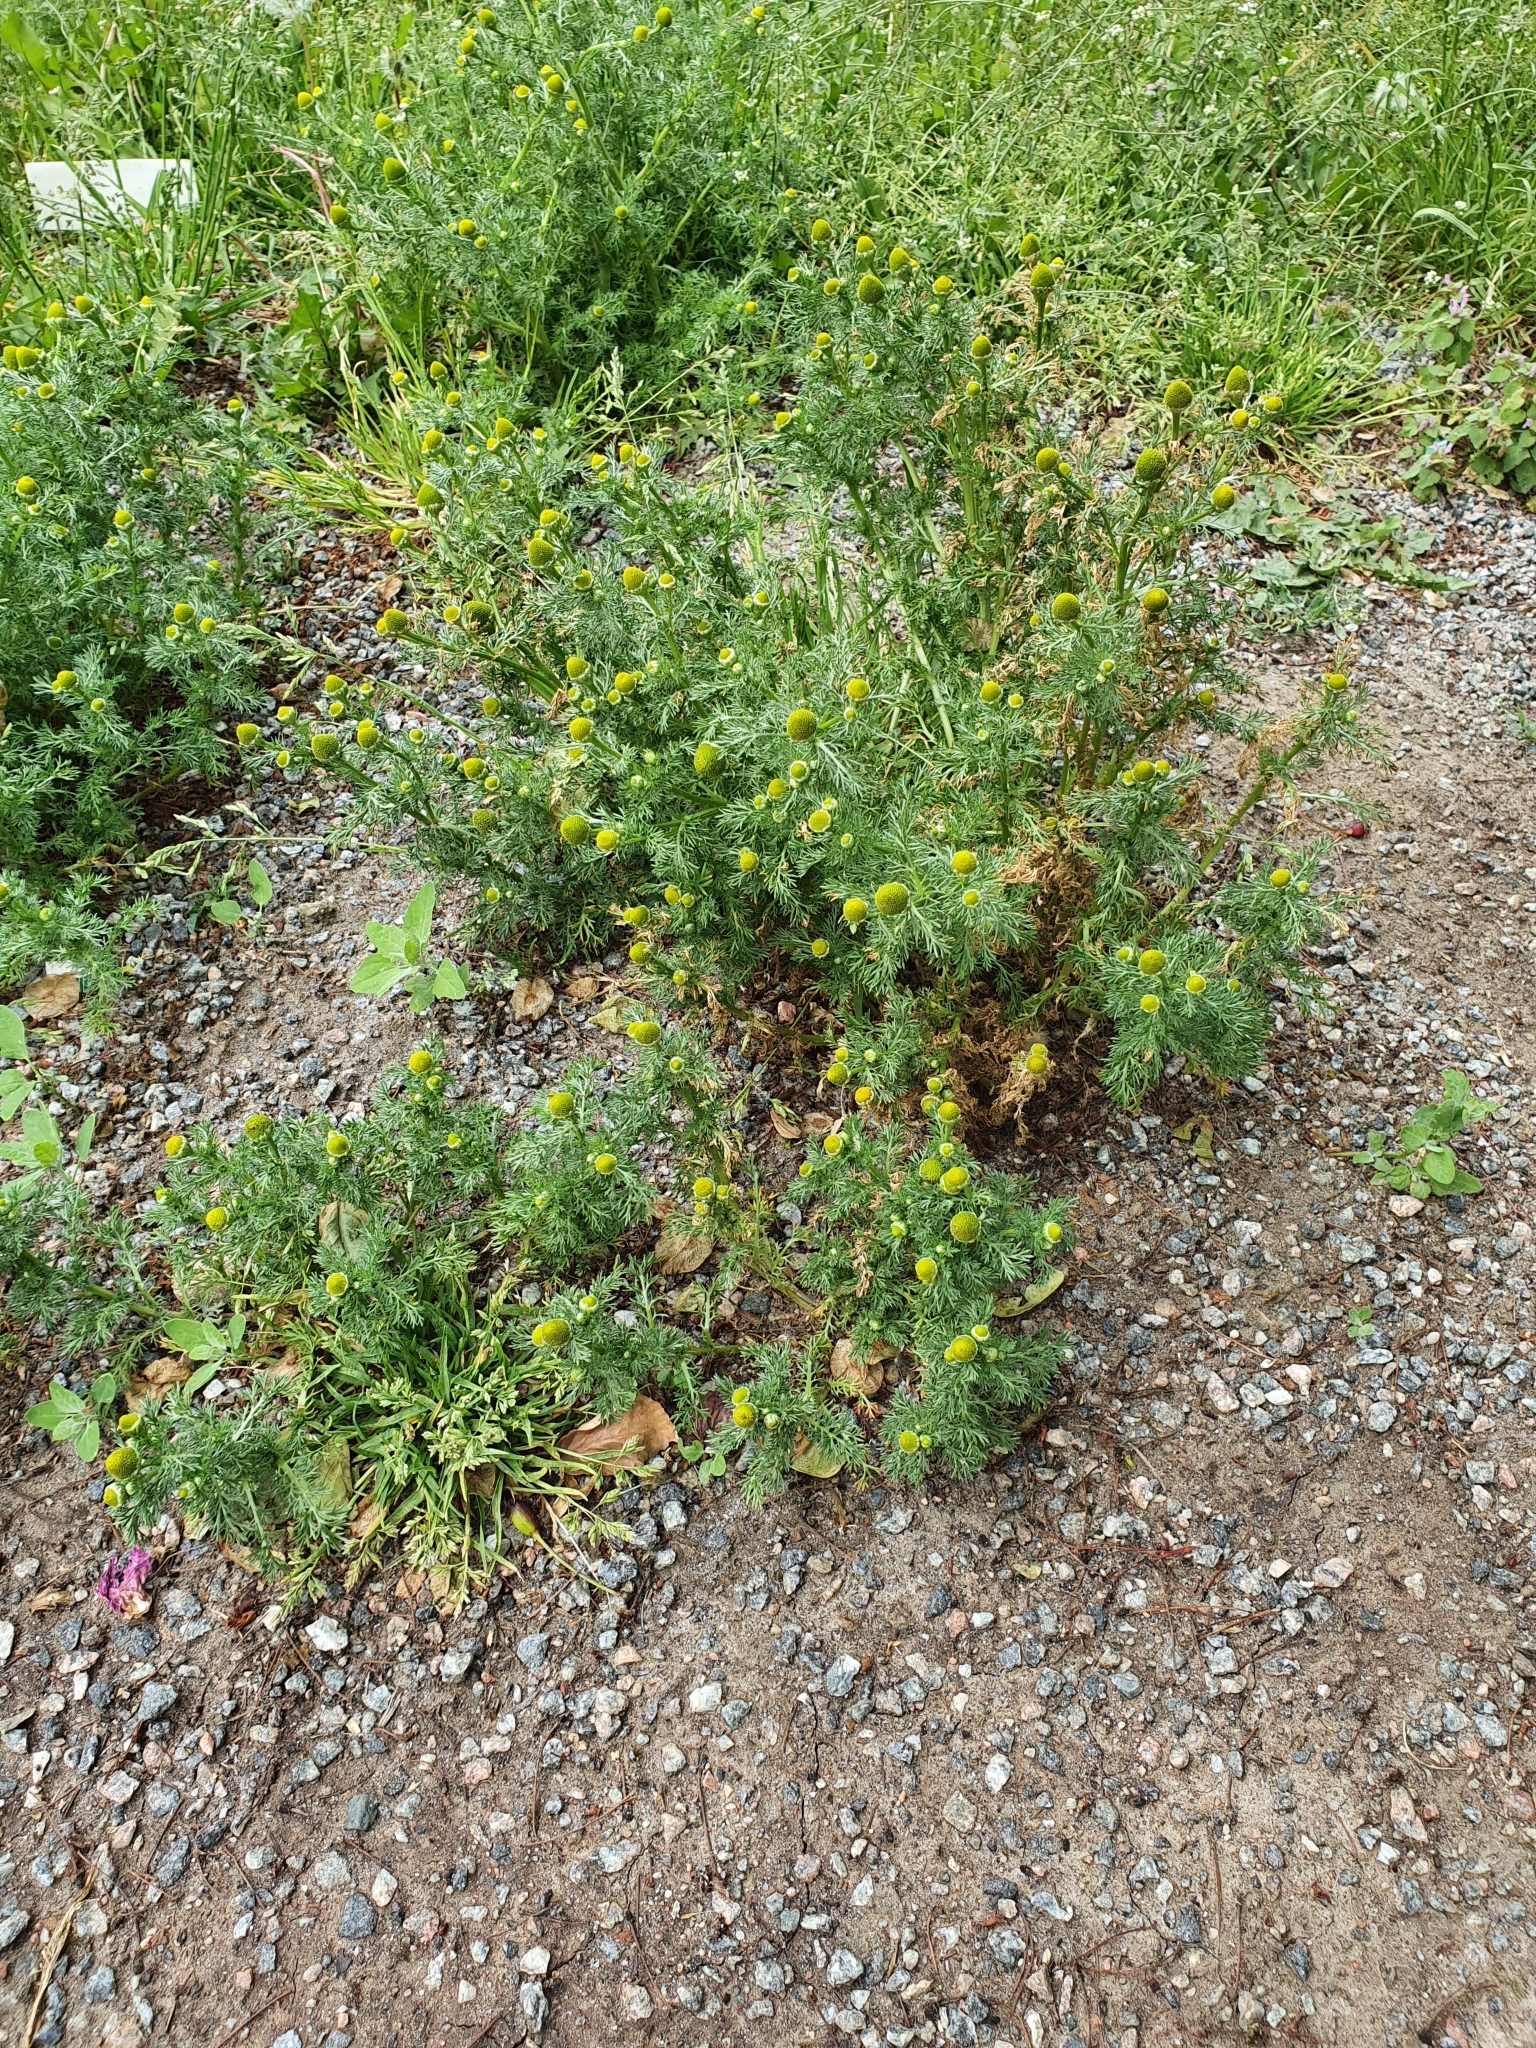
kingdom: Plantae
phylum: Tracheophyta
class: Magnoliopsida
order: Asterales
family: Asteraceae
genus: Matricaria
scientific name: Matricaria discoidea
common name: Disc mayweed
